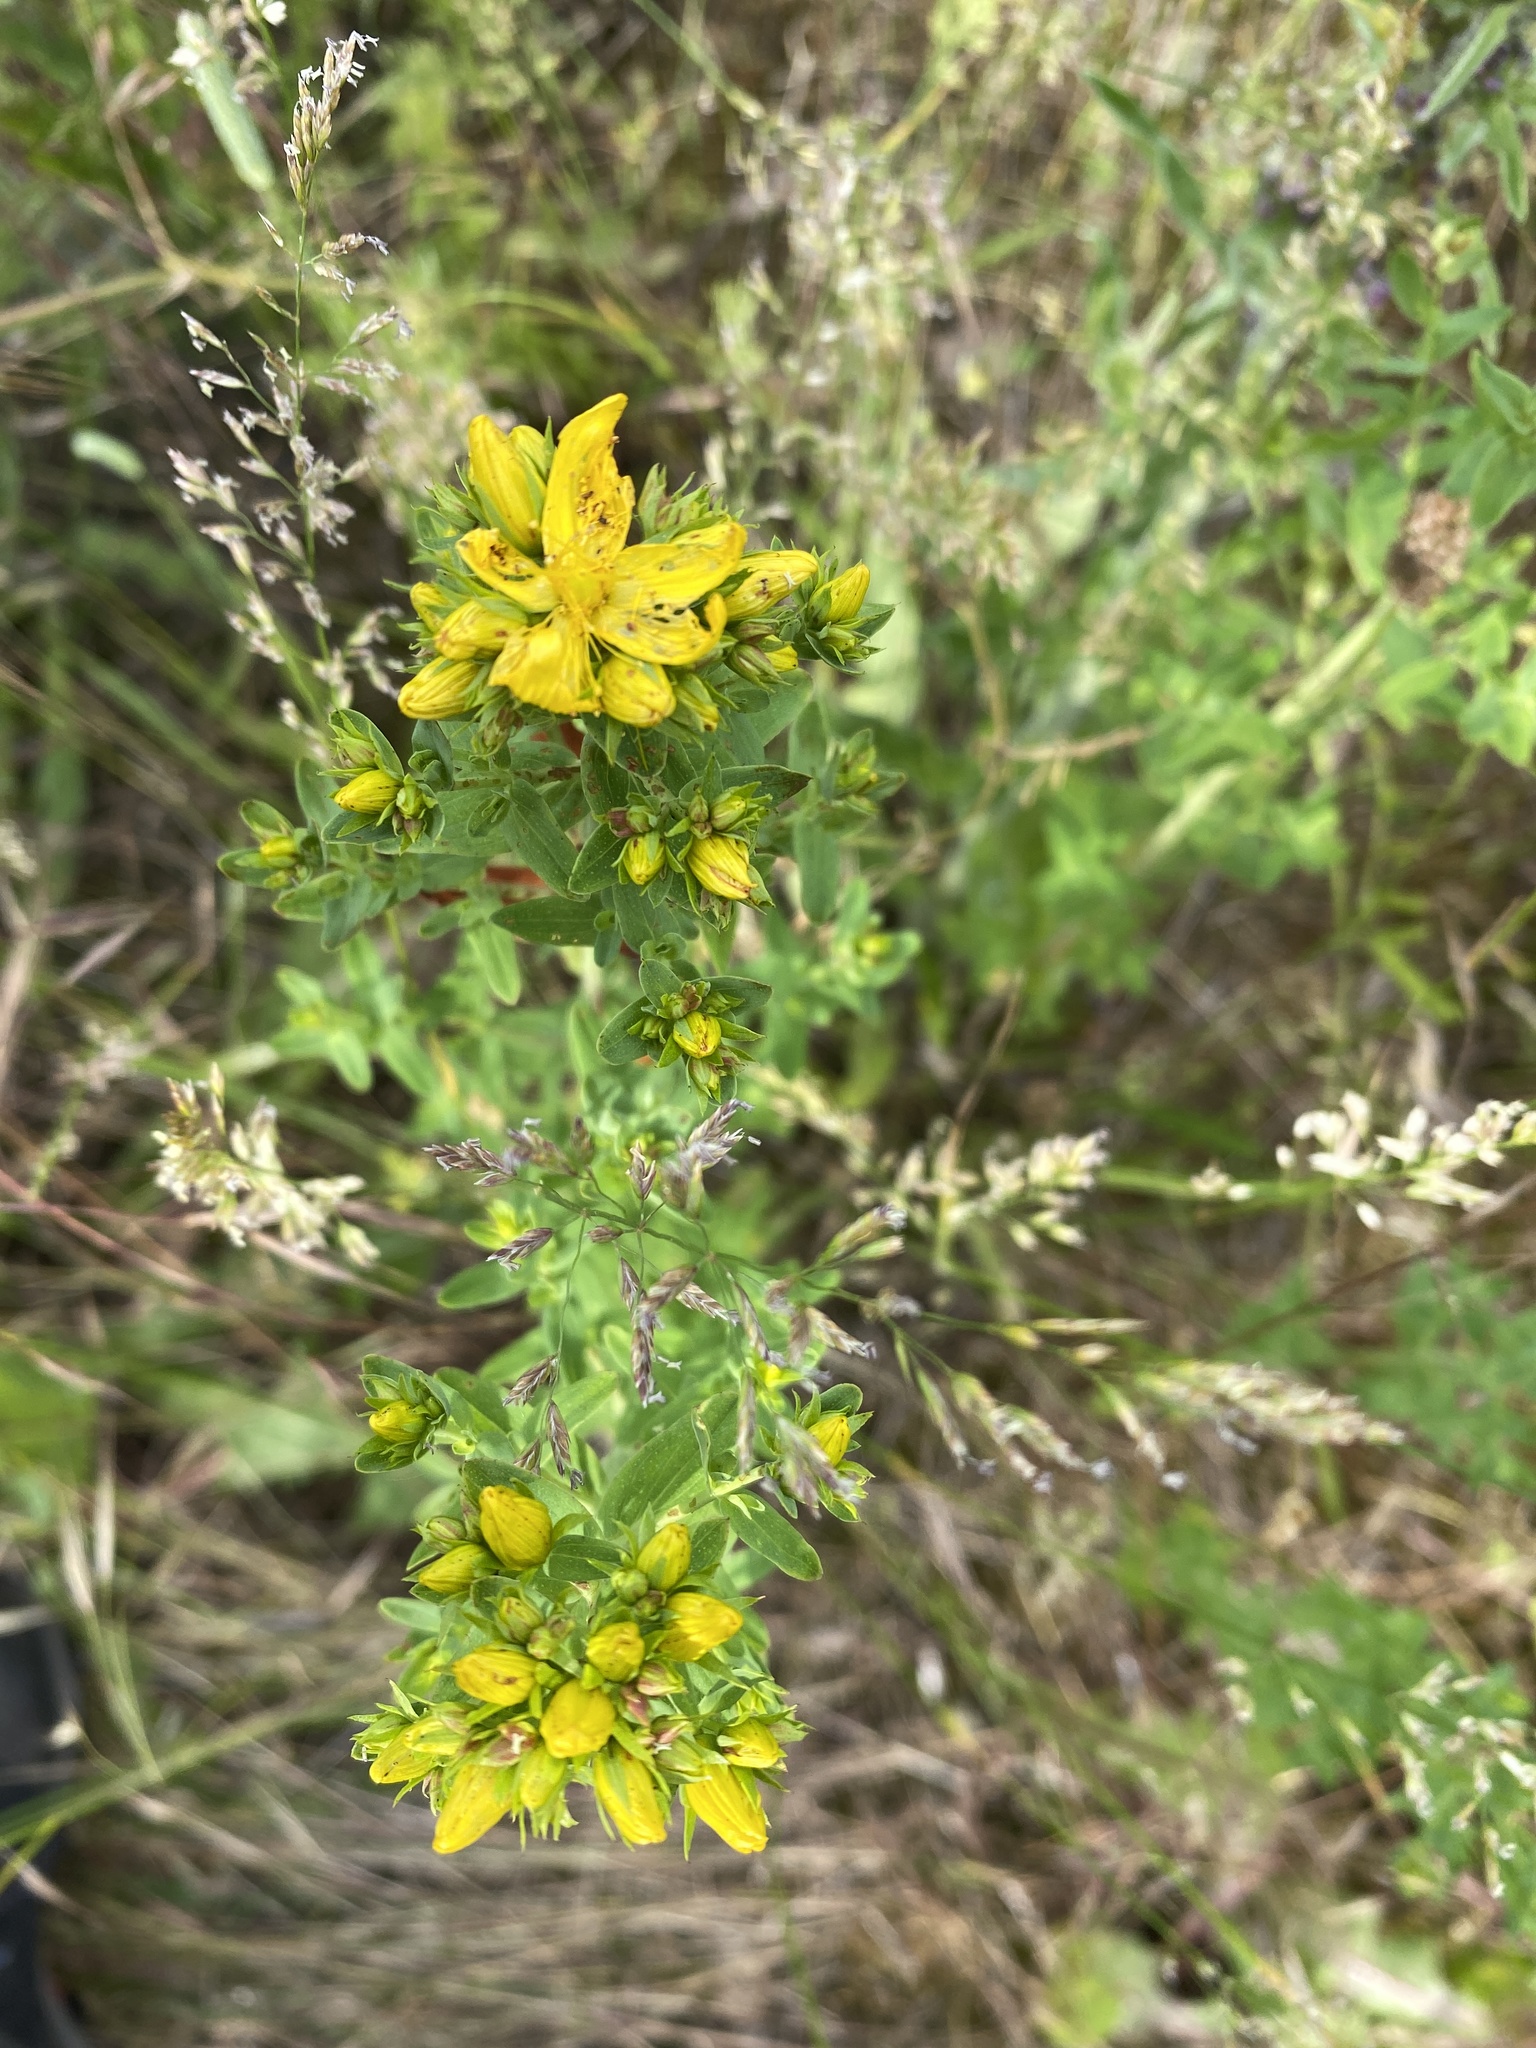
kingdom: Plantae
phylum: Tracheophyta
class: Magnoliopsida
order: Malpighiales
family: Hypericaceae
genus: Hypericum
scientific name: Hypericum perforatum
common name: Common st. johnswort
